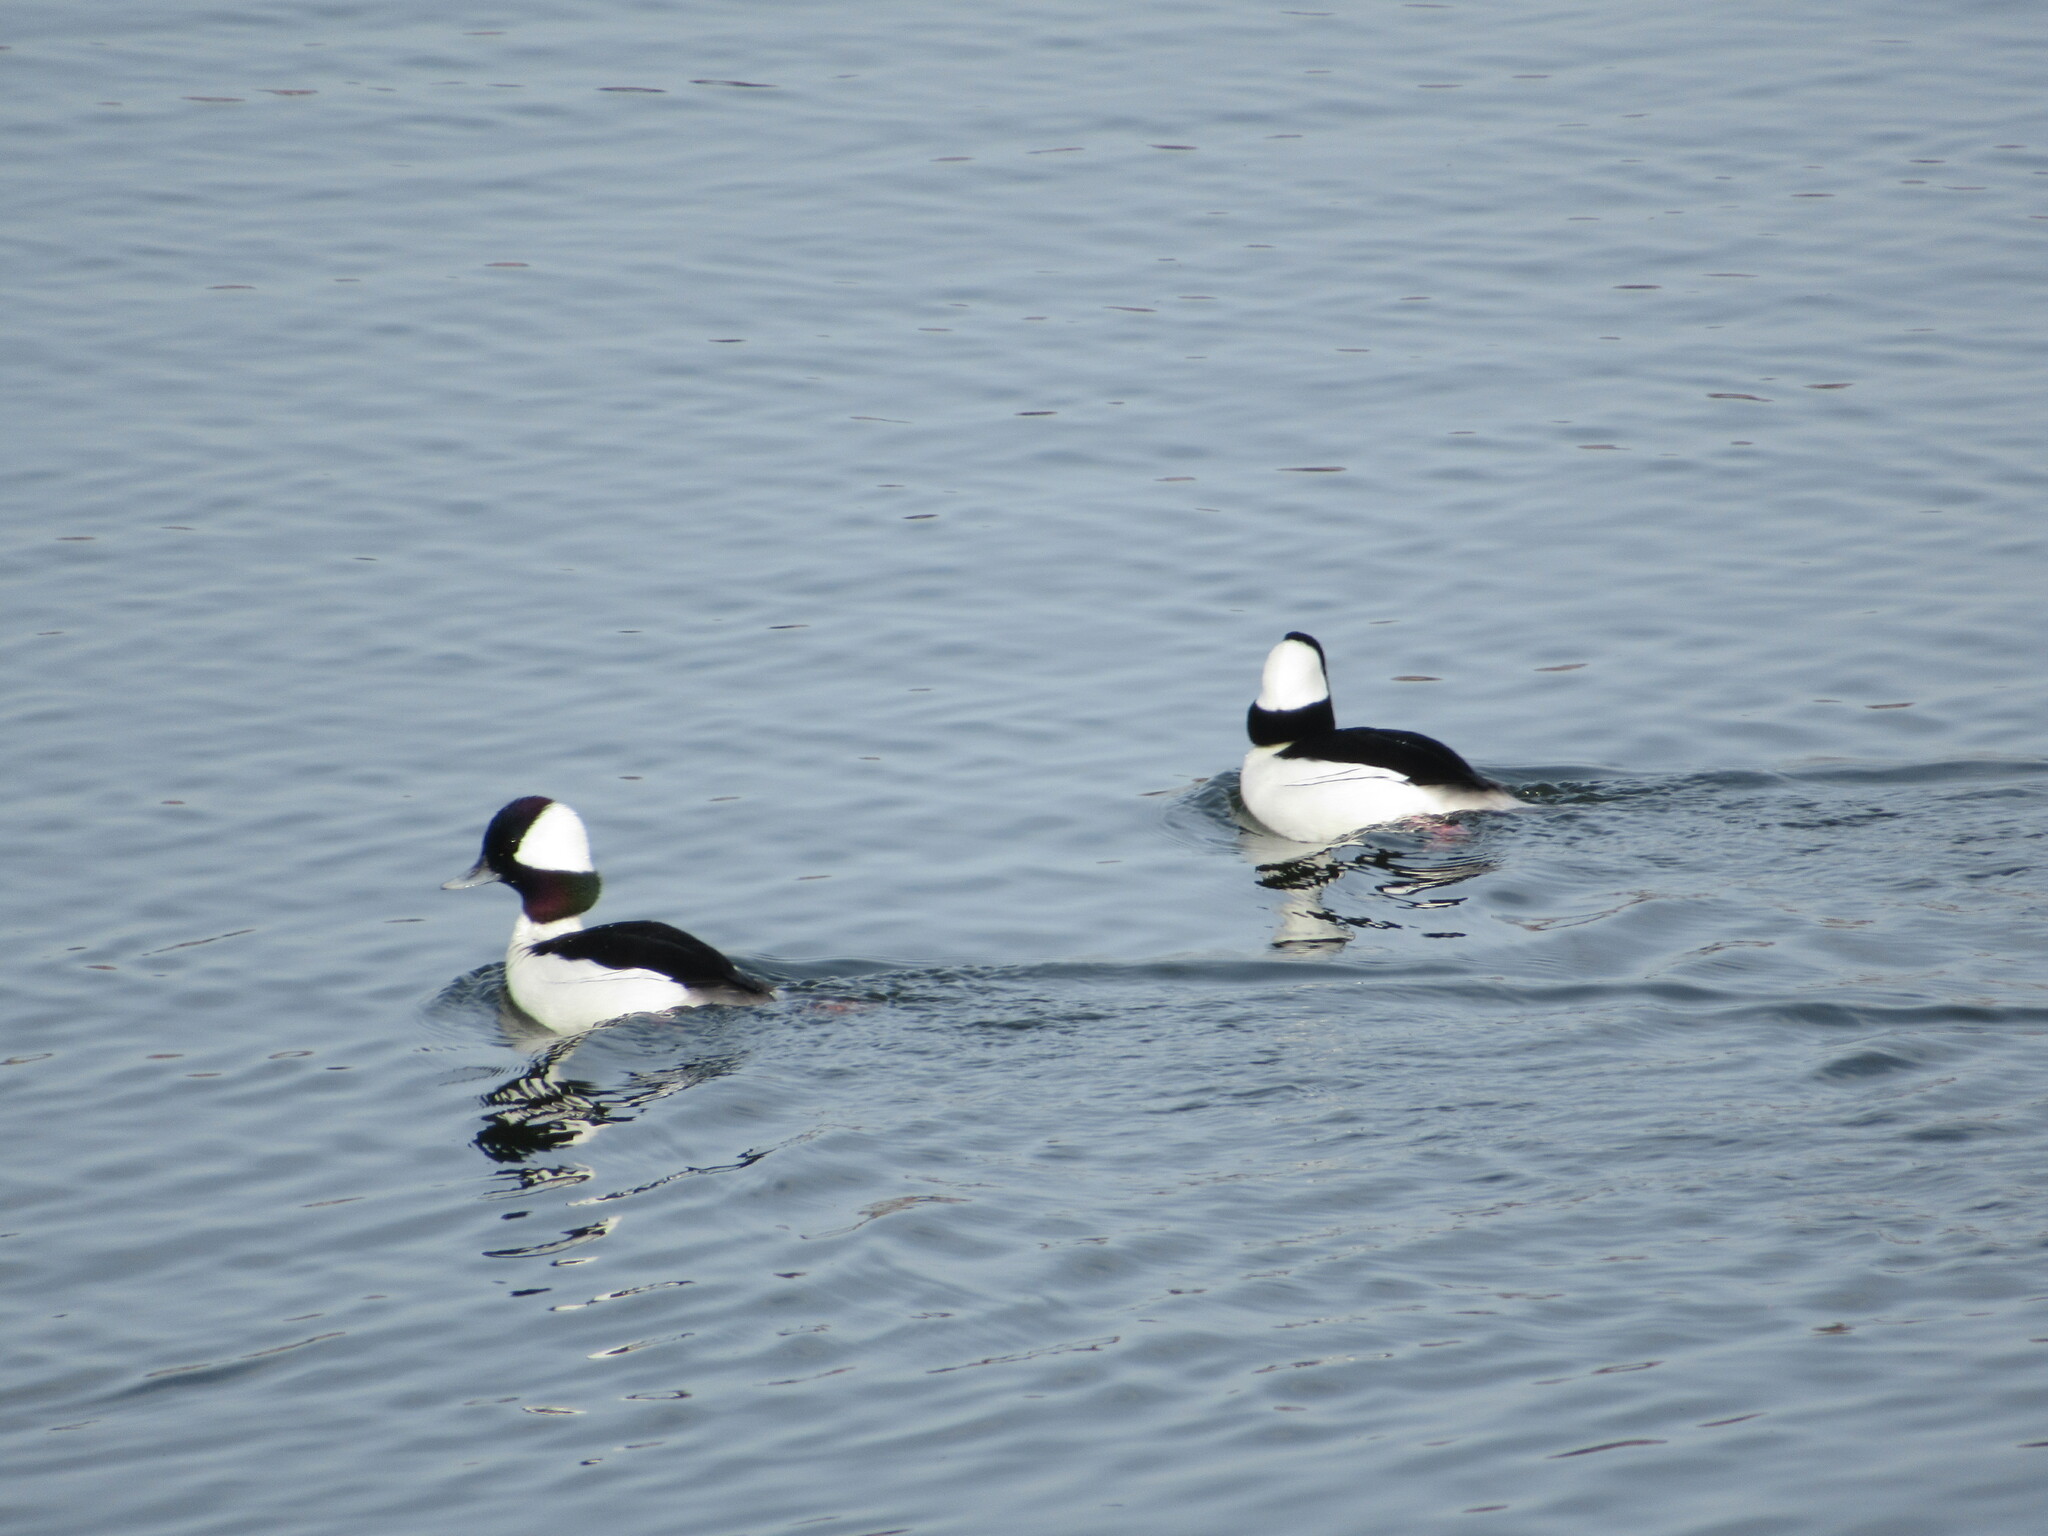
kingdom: Animalia
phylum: Chordata
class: Aves
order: Anseriformes
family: Anatidae
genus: Bucephala
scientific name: Bucephala albeola
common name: Bufflehead
